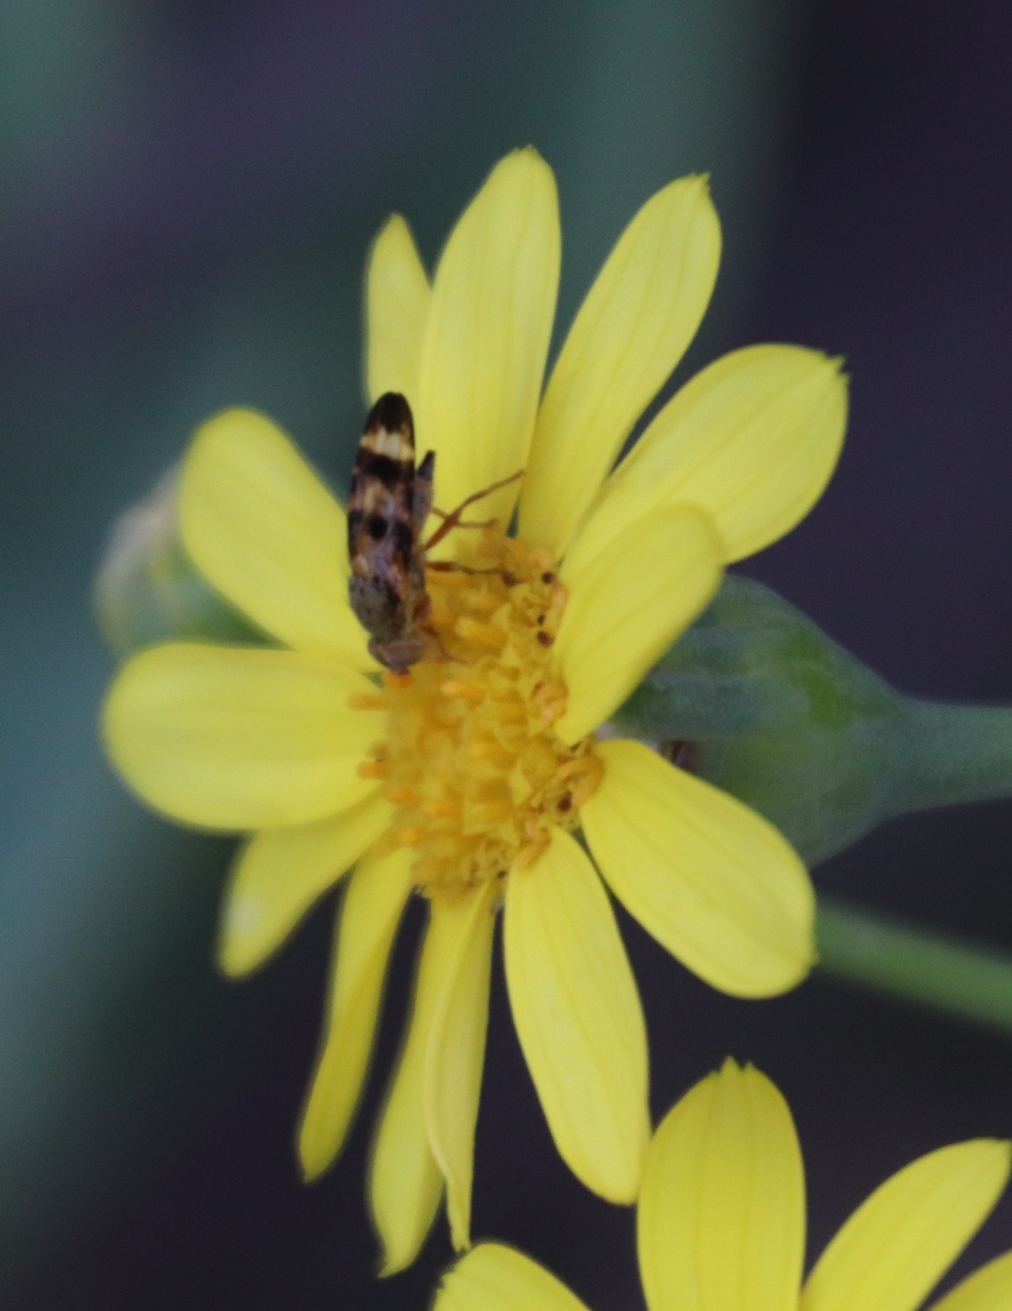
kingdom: Plantae
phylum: Tracheophyta
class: Magnoliopsida
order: Asterales
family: Asteraceae
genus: Othonna
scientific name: Othonna dentata
